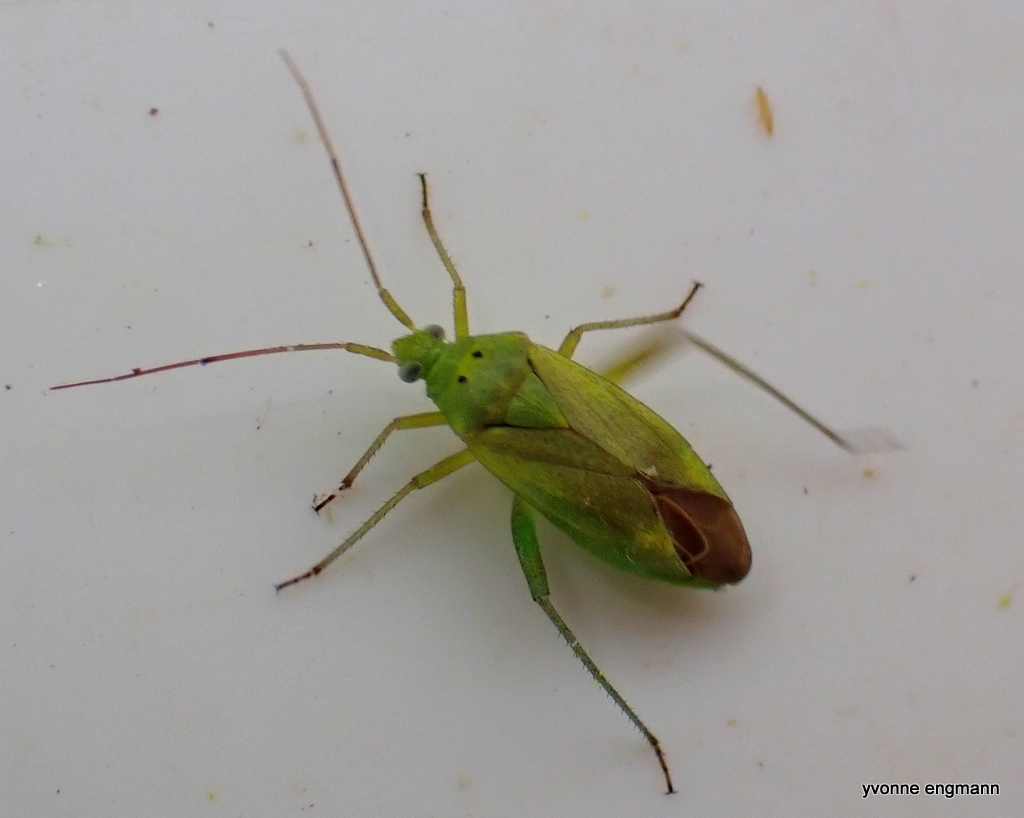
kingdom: Animalia
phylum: Arthropoda
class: Insecta
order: Hemiptera
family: Miridae
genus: Closterotomus
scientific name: Closterotomus norvegicus
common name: Plant bug
